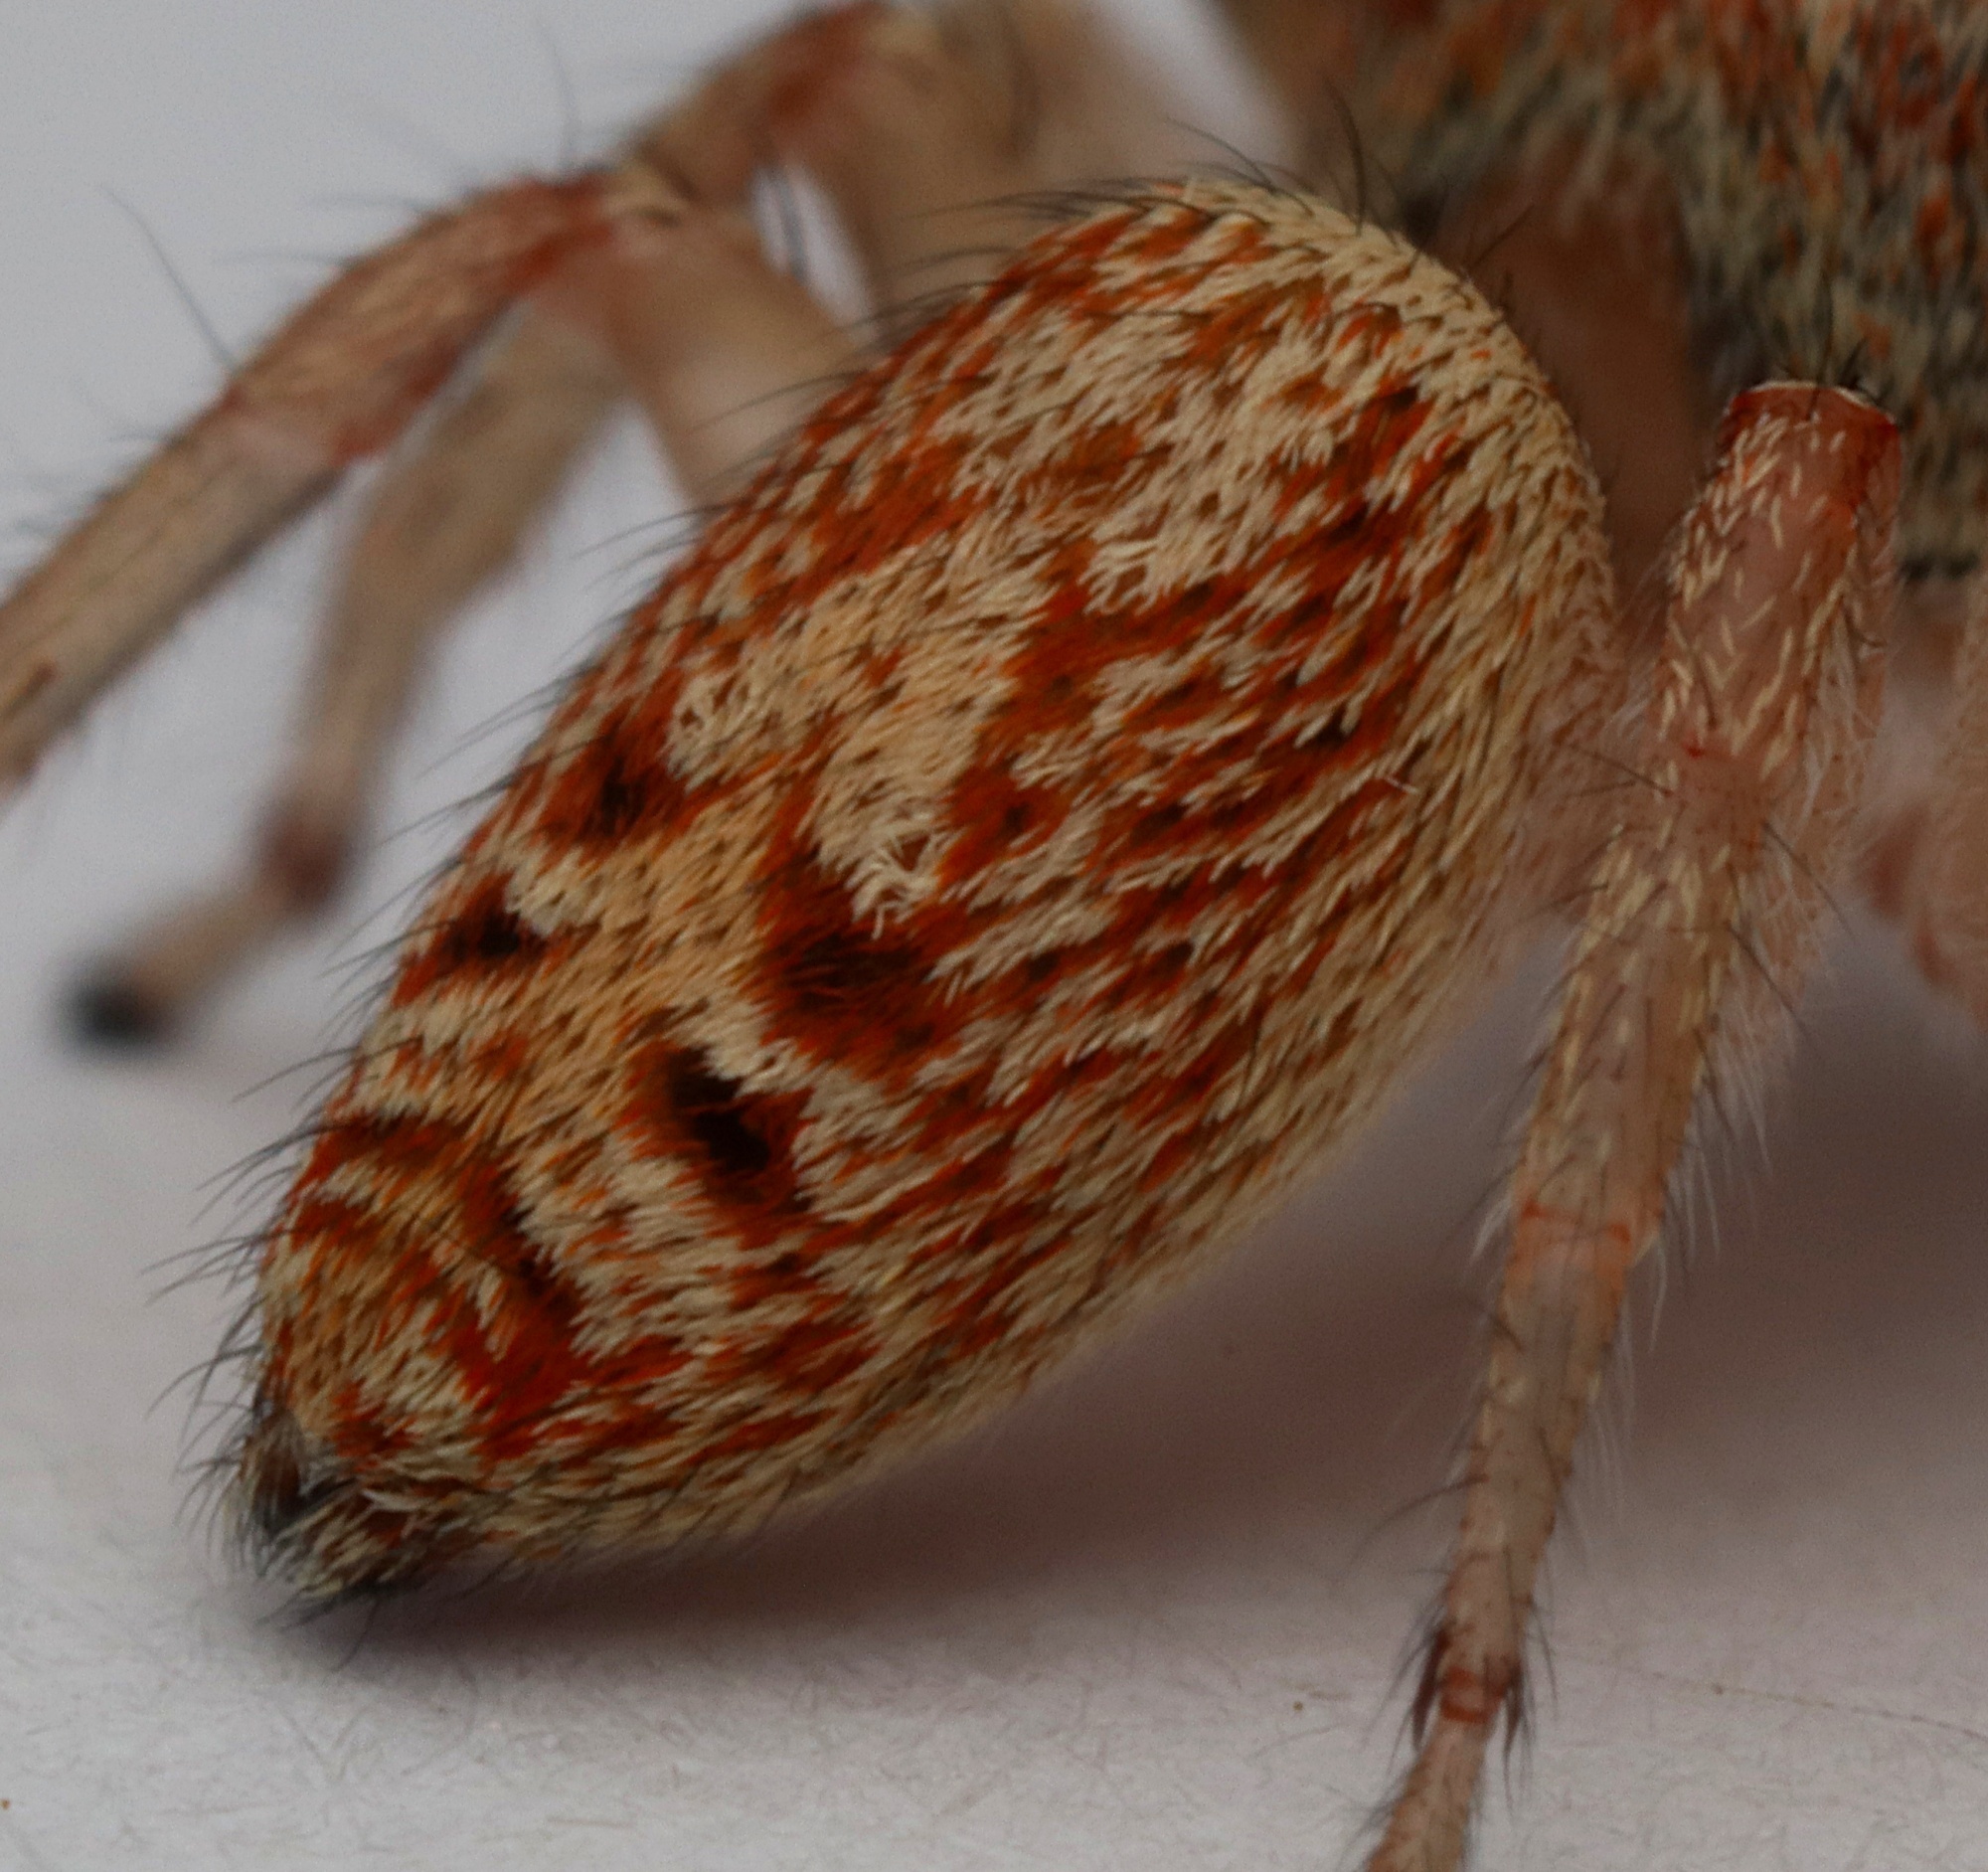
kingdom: Animalia
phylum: Arthropoda
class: Arachnida
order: Araneae
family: Salticidae
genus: Opisthoncus
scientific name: Opisthoncus polyphemus
